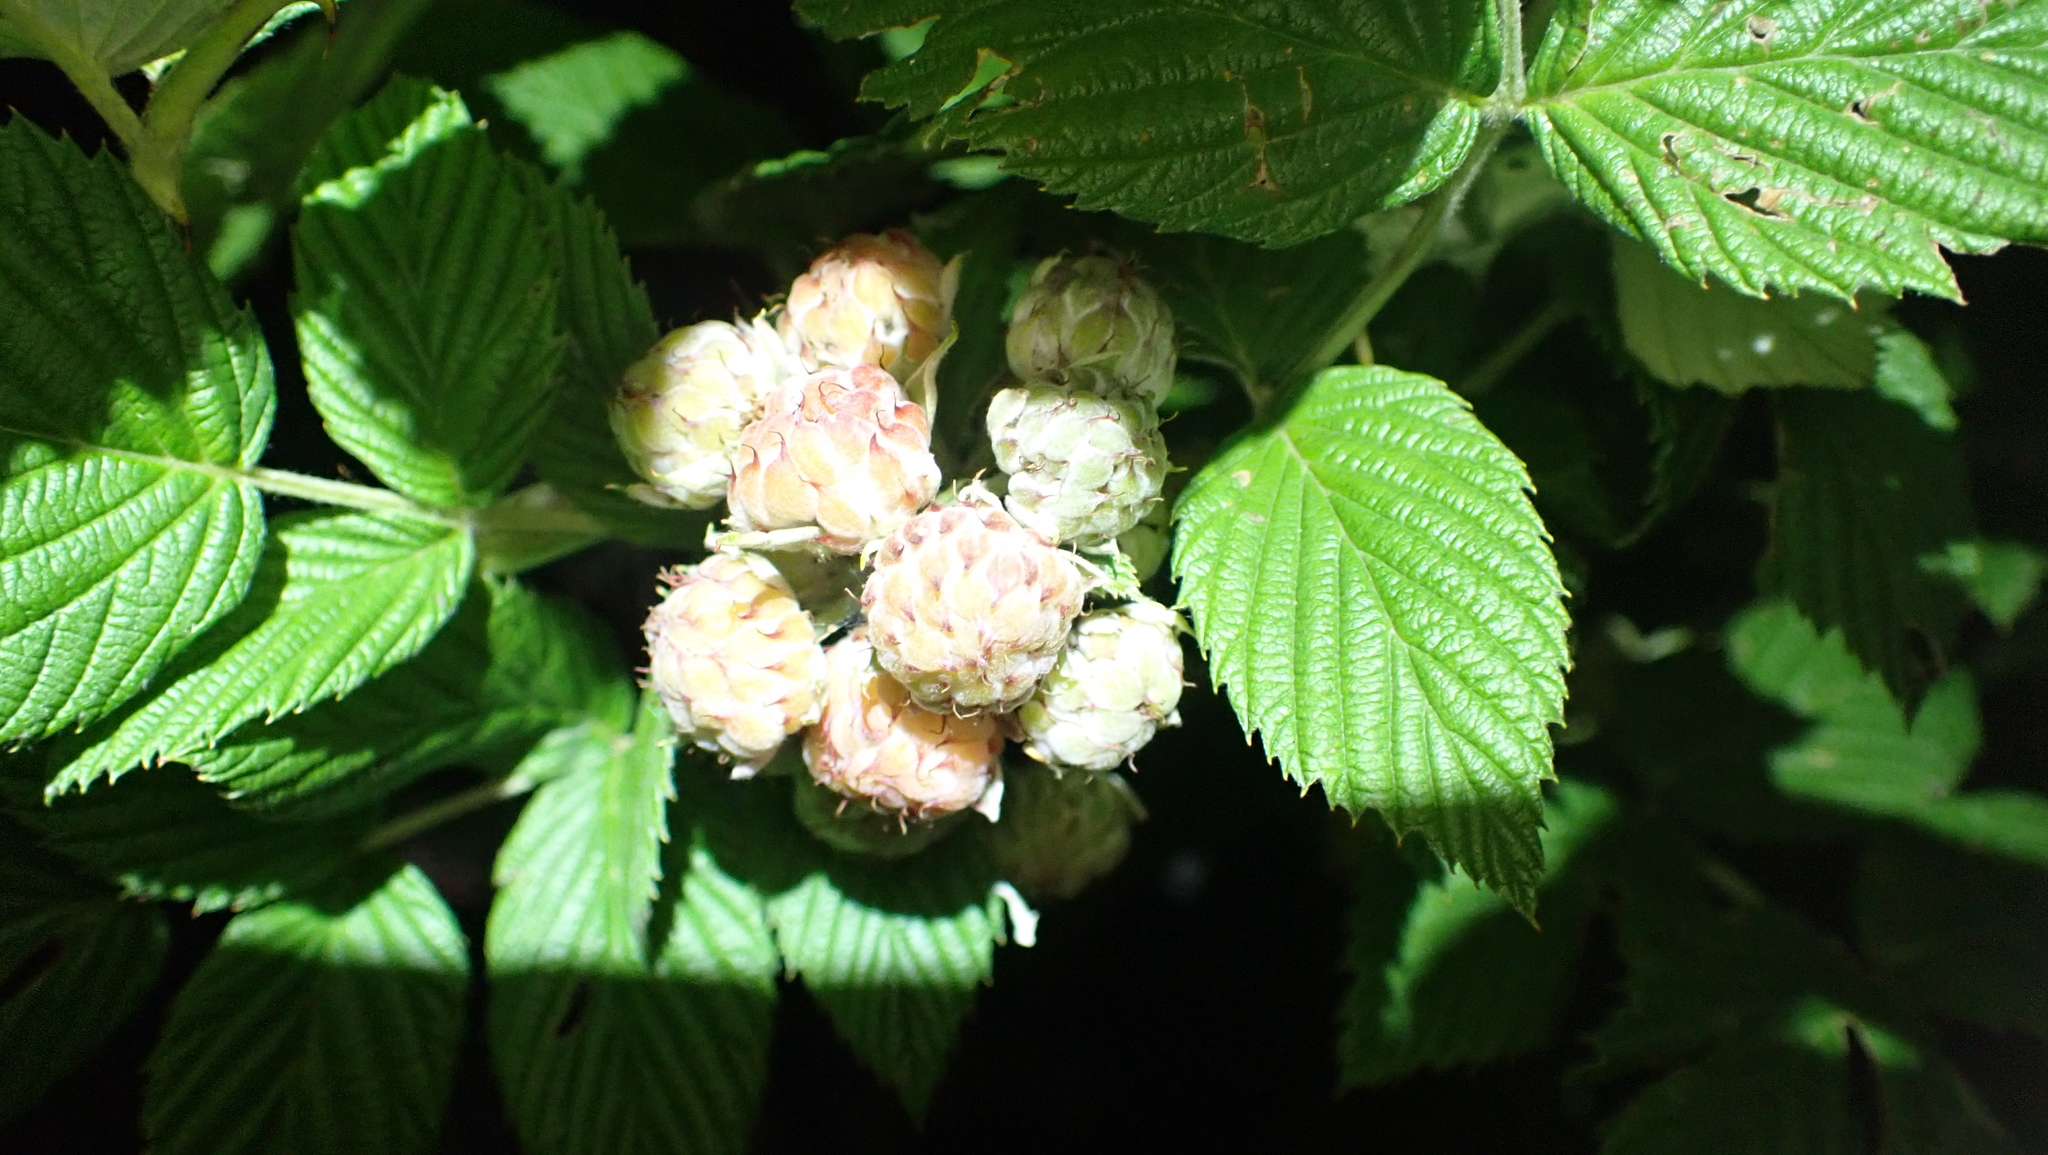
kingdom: Plantae
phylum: Tracheophyta
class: Magnoliopsida
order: Rosales
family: Rosaceae
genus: Rubus
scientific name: Rubus niveus
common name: Snowpeaks raspberry
